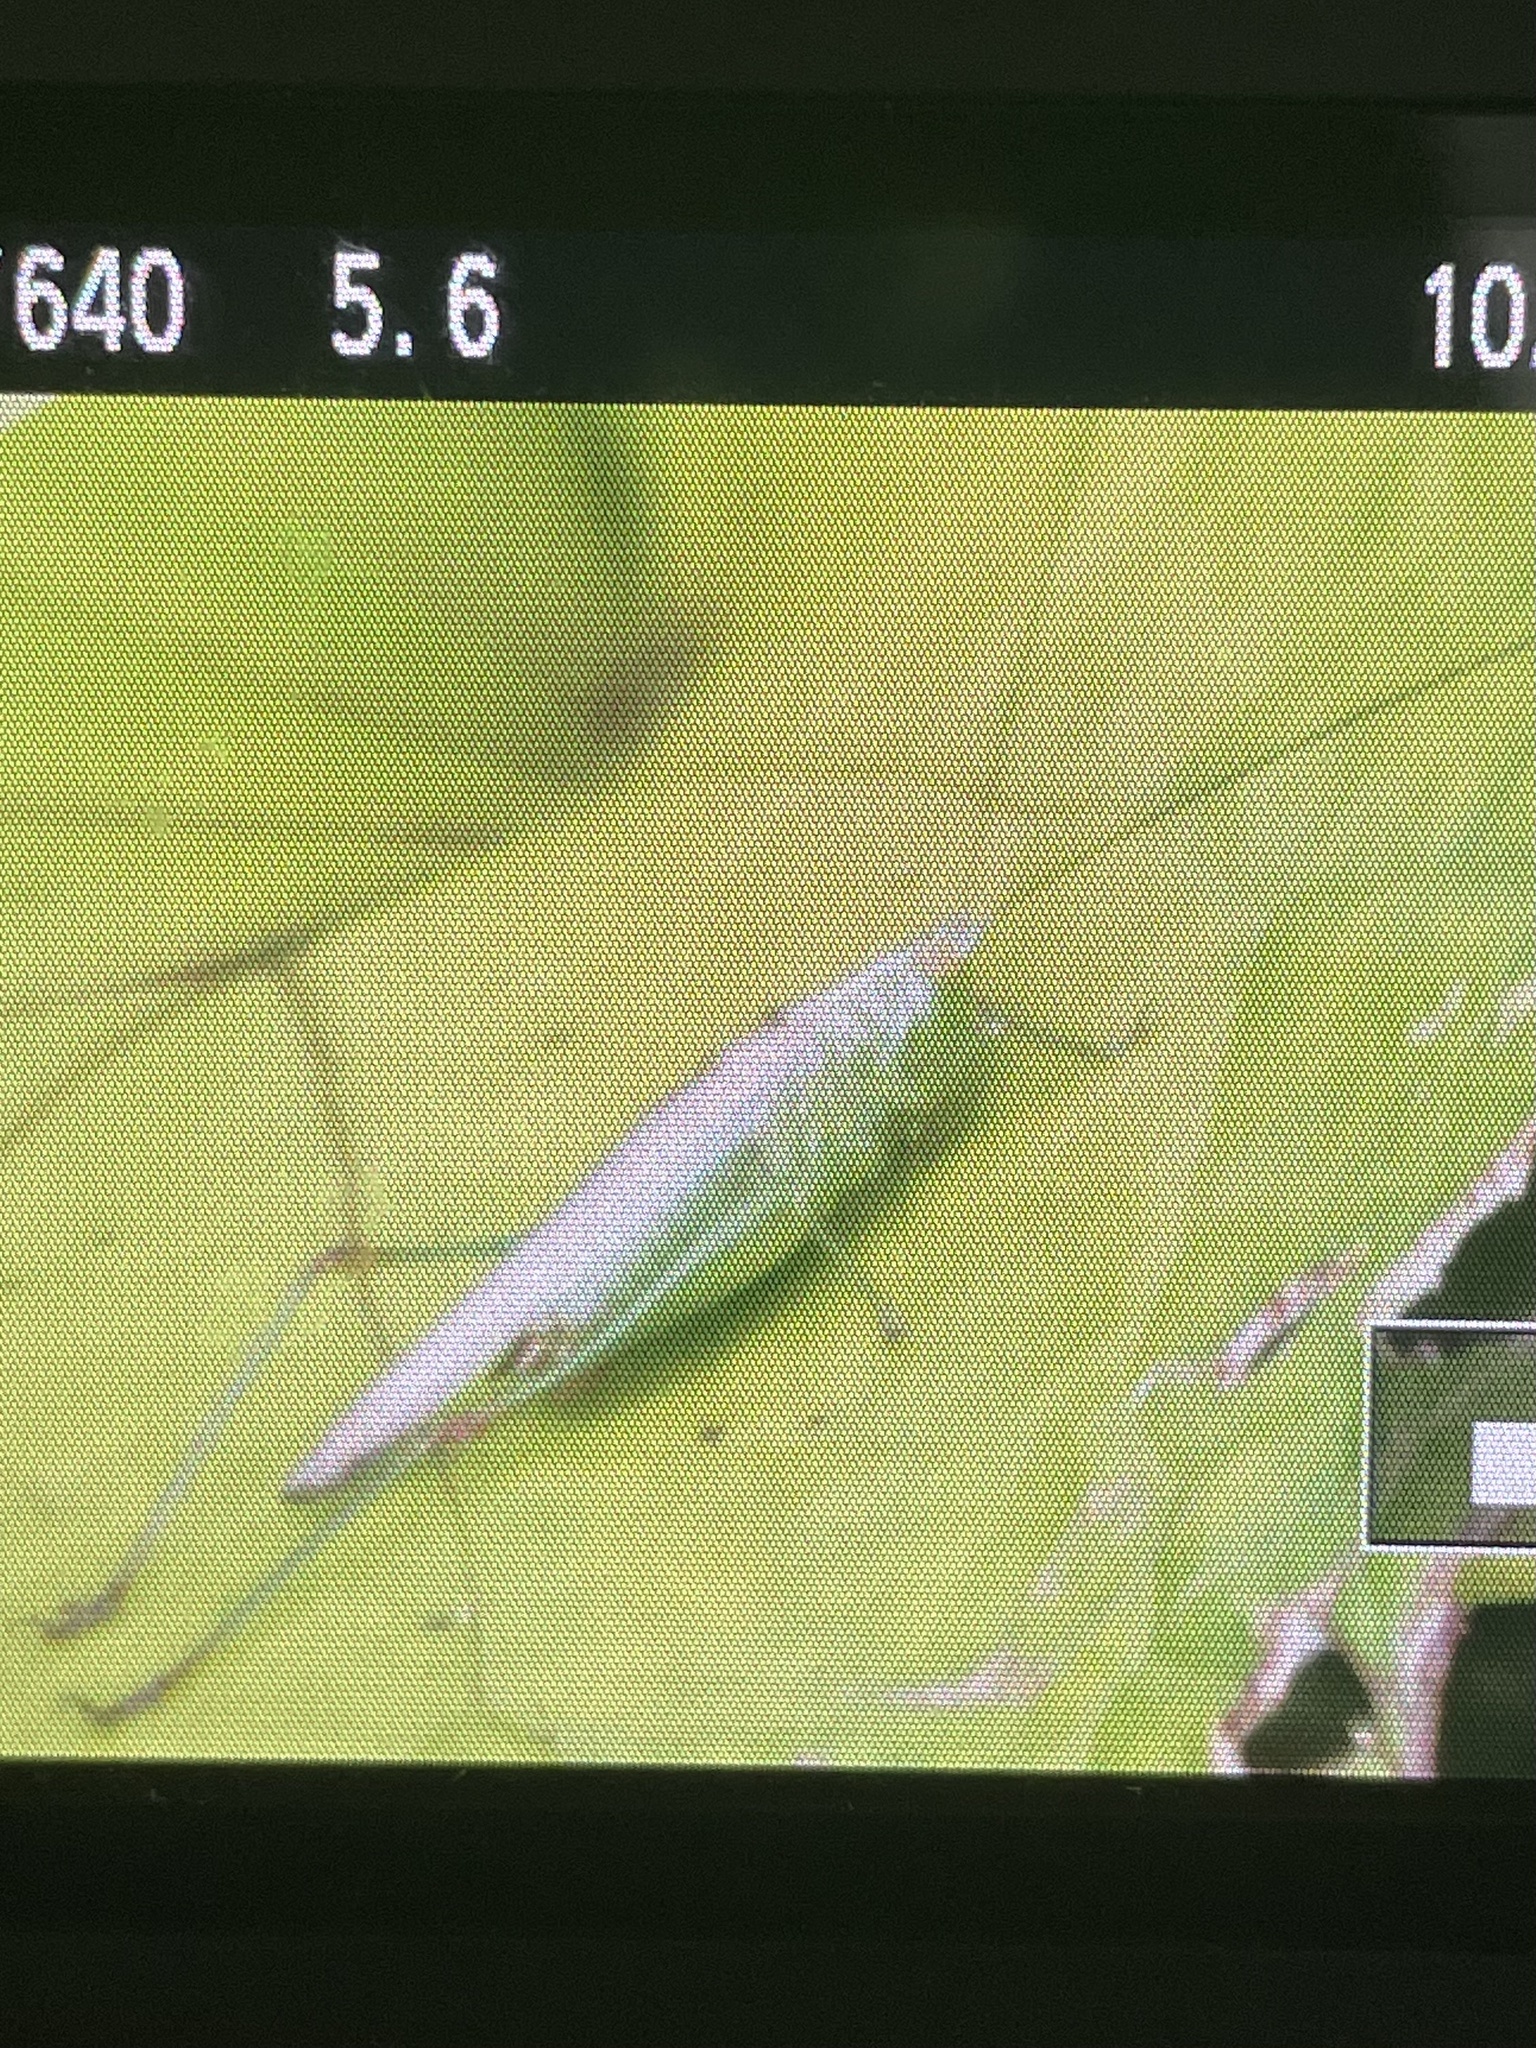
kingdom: Animalia
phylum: Arthropoda
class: Insecta
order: Orthoptera
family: Tettigoniidae
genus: Conocephalus
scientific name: Conocephalus fuscus
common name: Long-winged conehead
